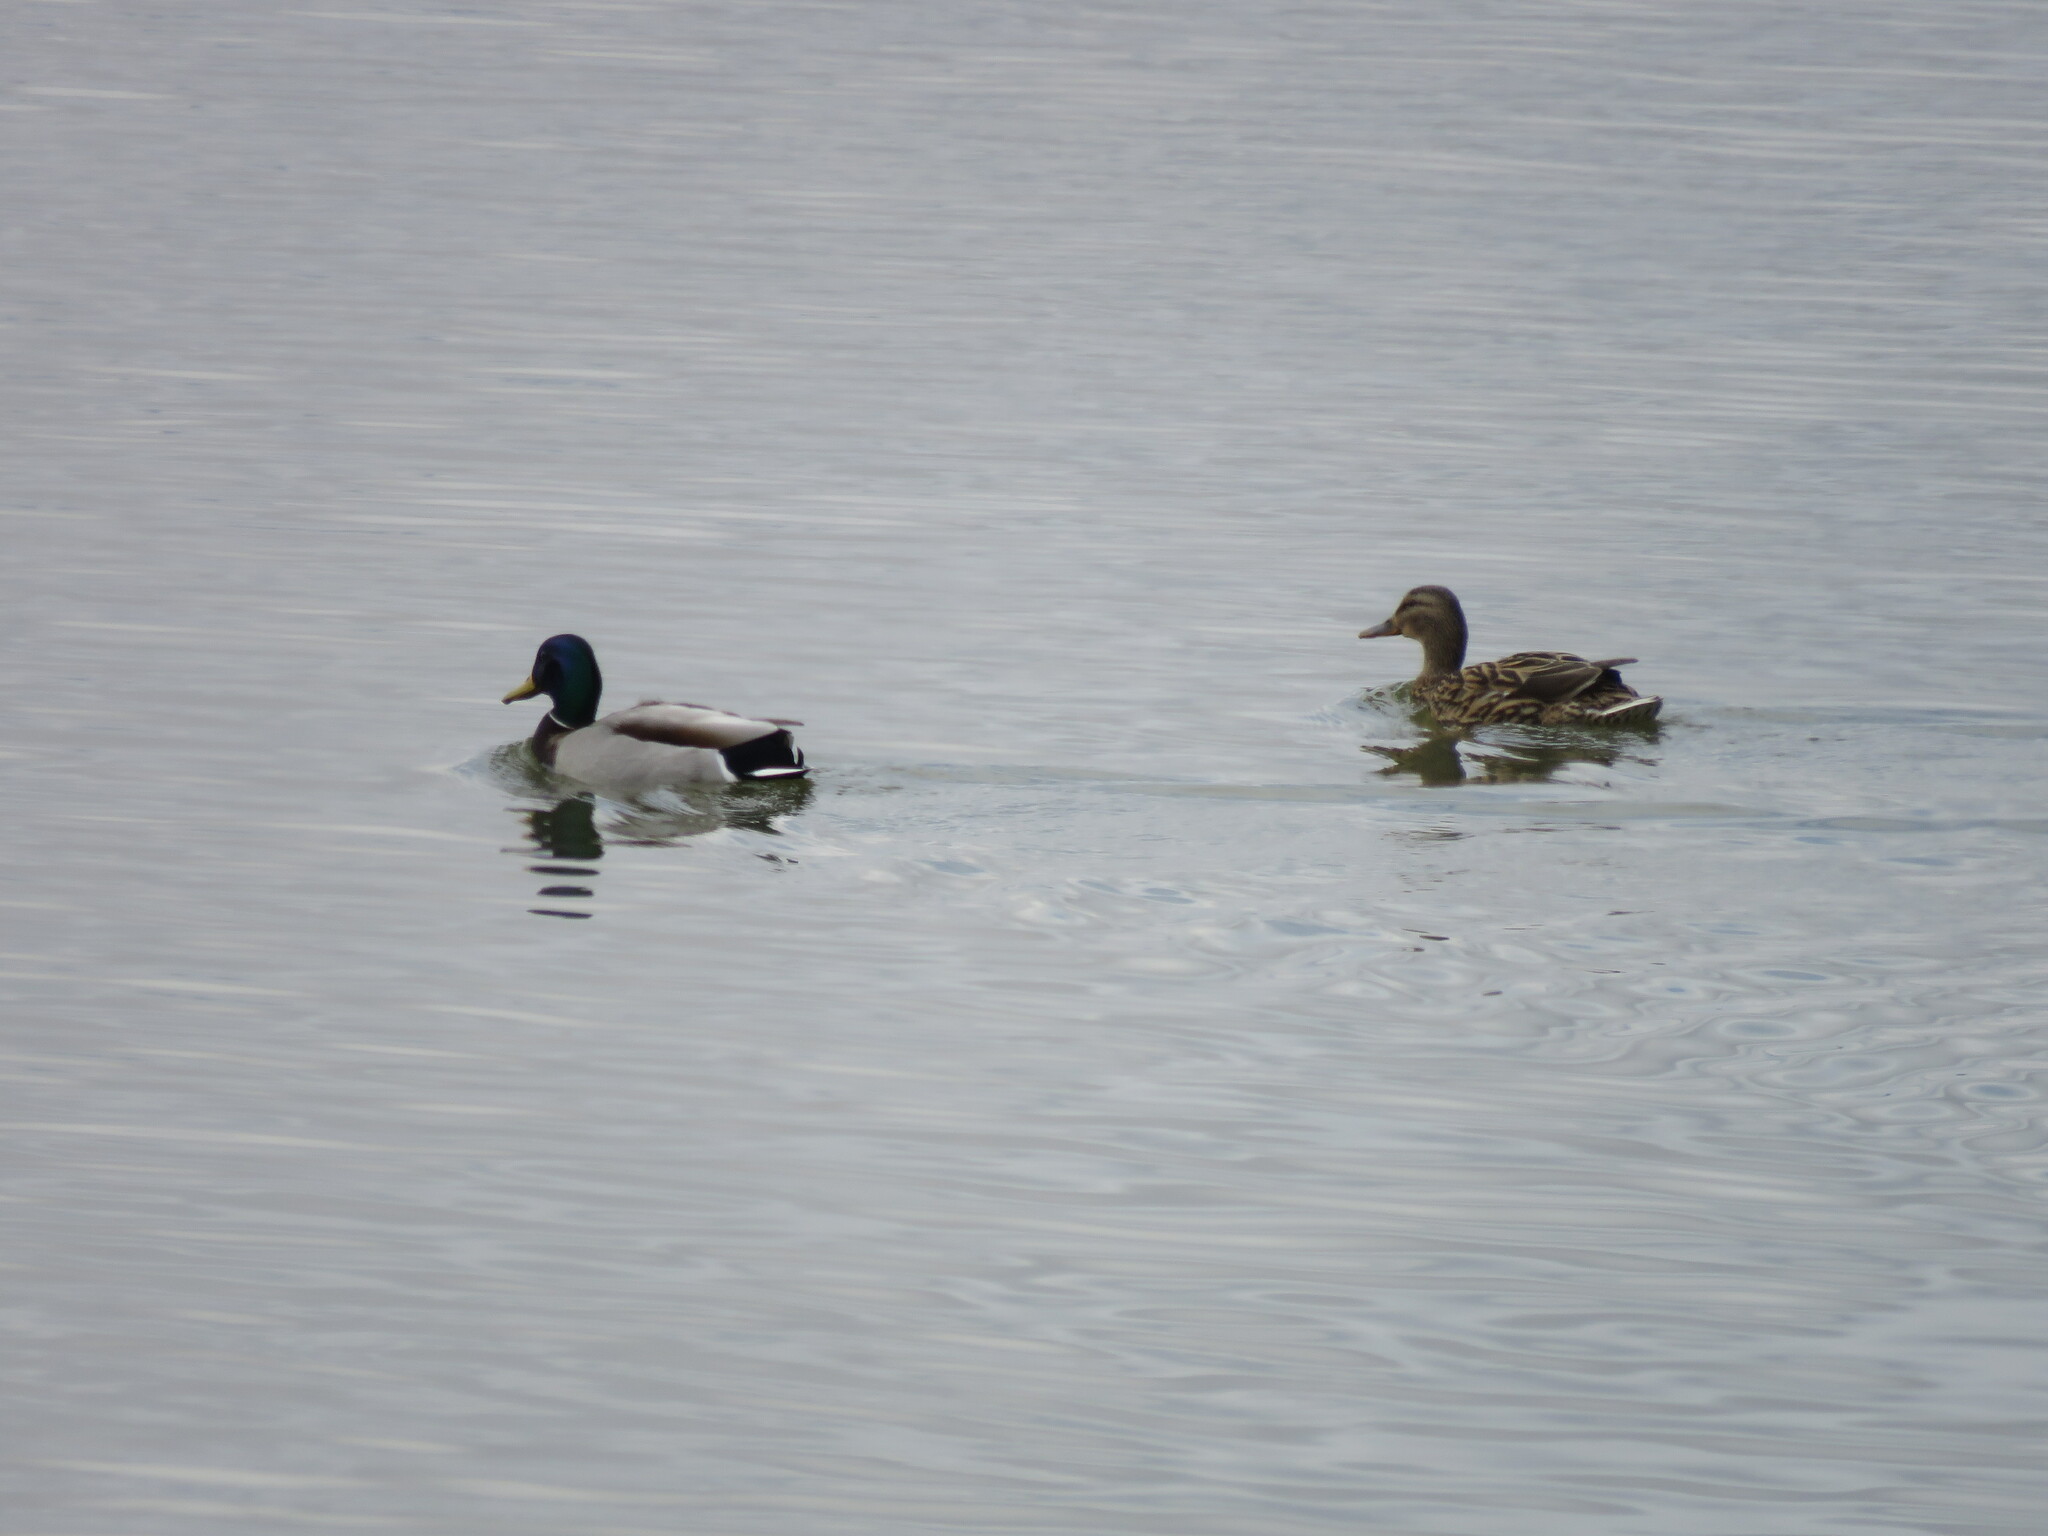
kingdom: Animalia
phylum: Chordata
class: Aves
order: Anseriformes
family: Anatidae
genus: Anas
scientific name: Anas platyrhynchos
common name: Mallard
